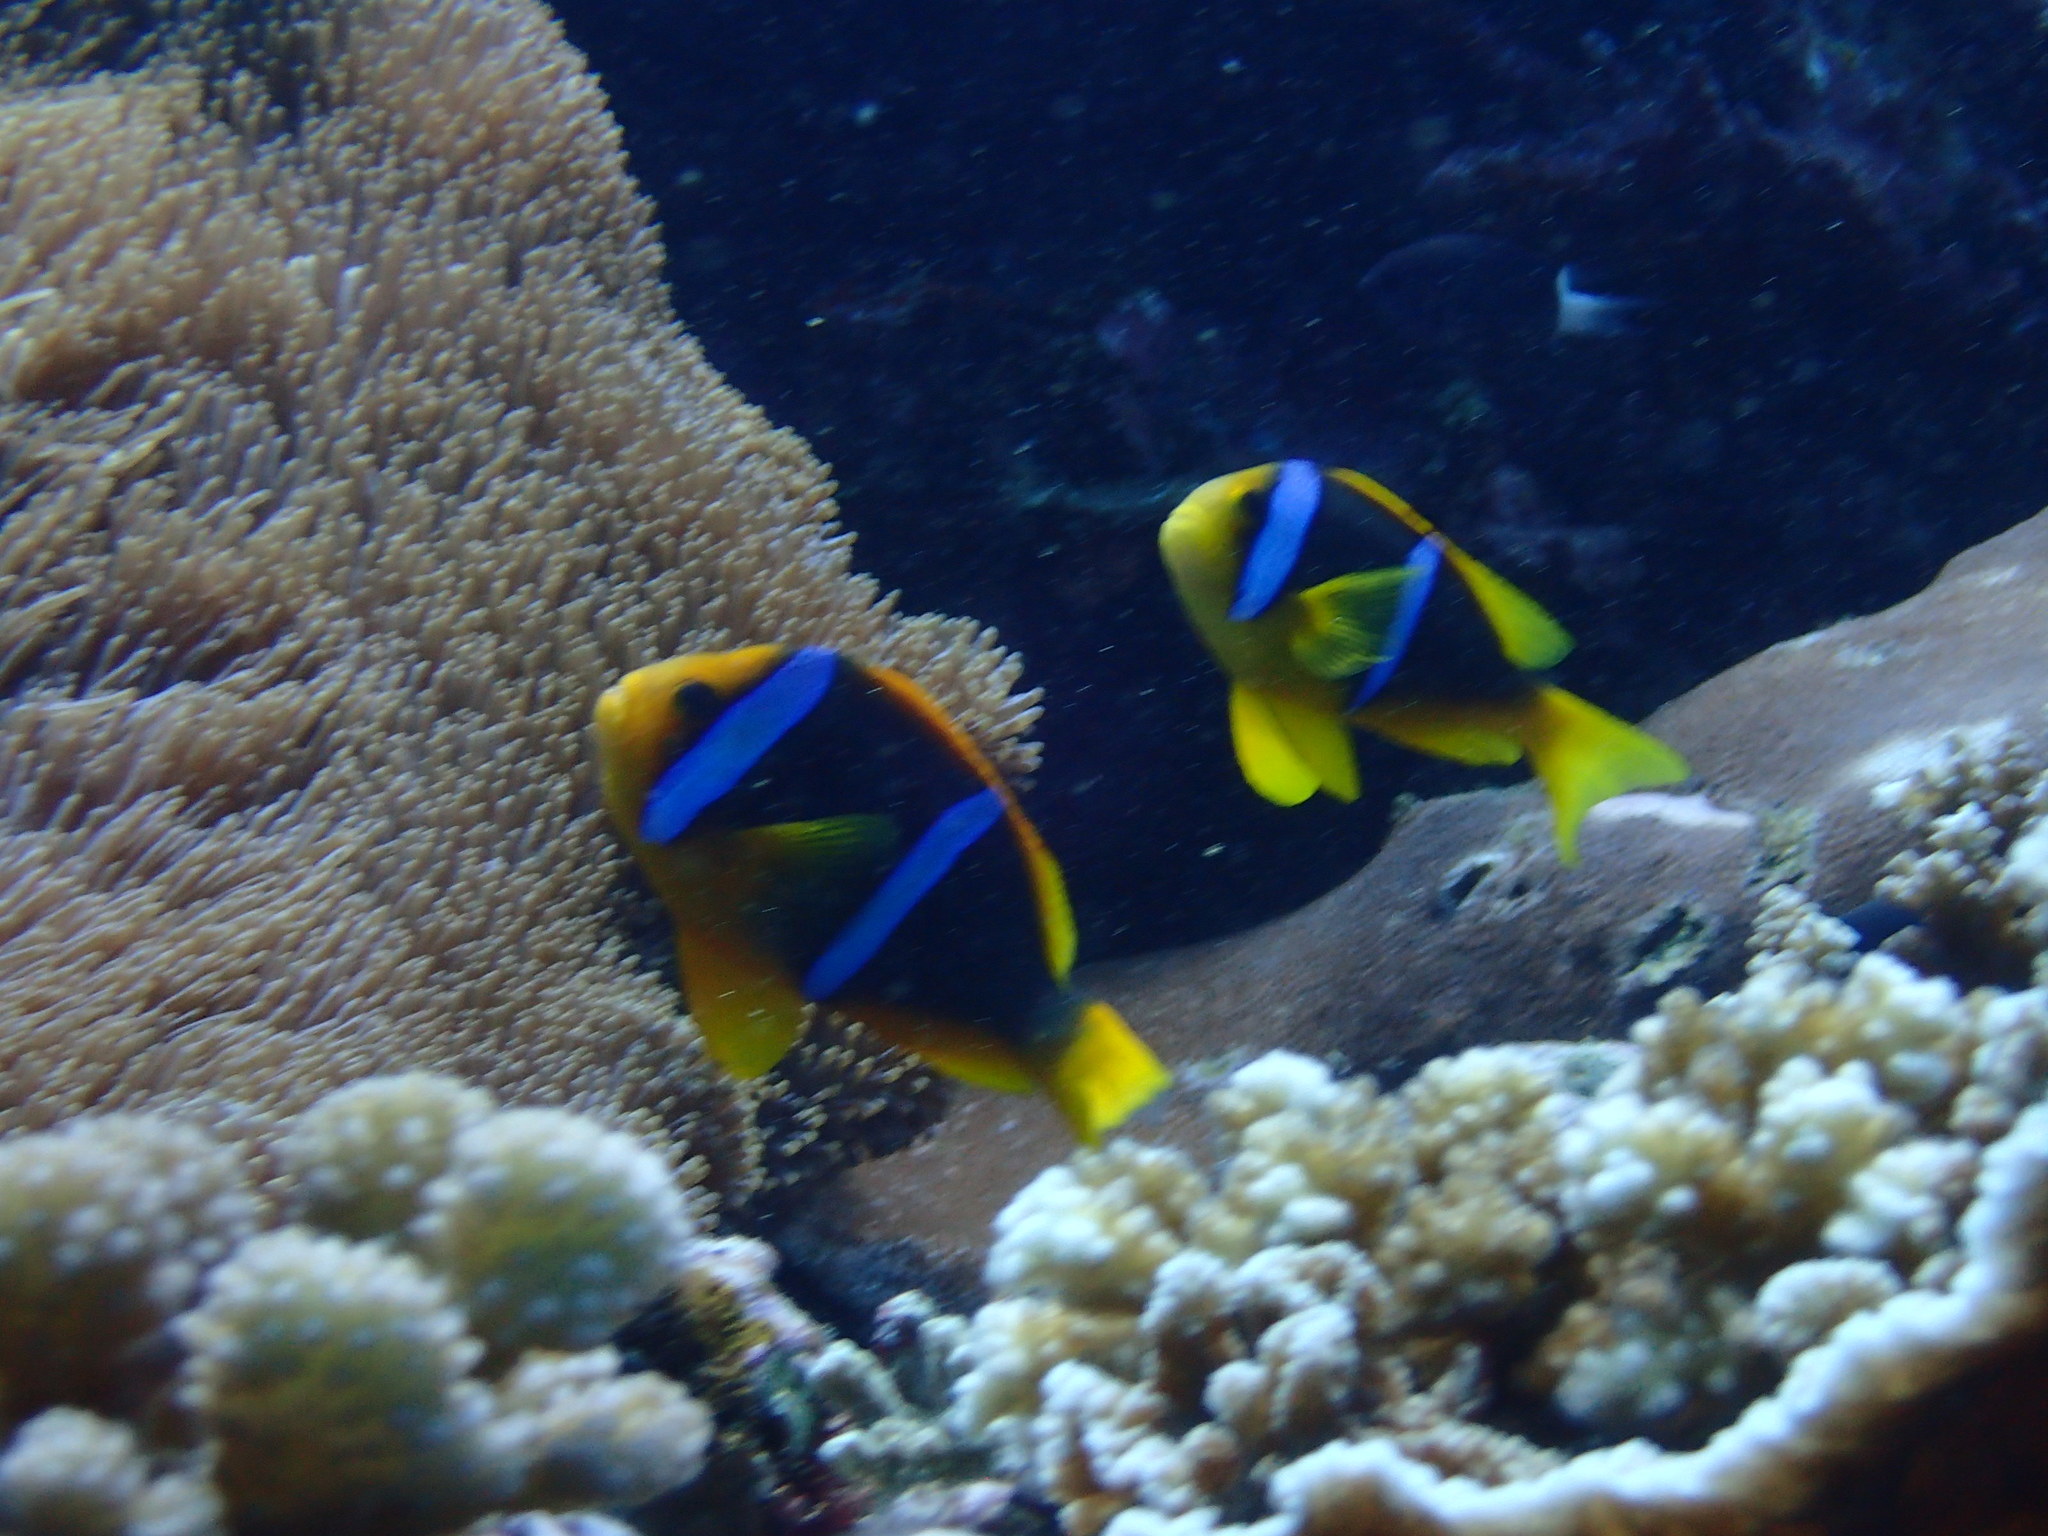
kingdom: Animalia
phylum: Chordata
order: Perciformes
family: Pomacentridae
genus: Amphiprion
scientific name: Amphiprion chrysopterus
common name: Orange-fin anemonefish
